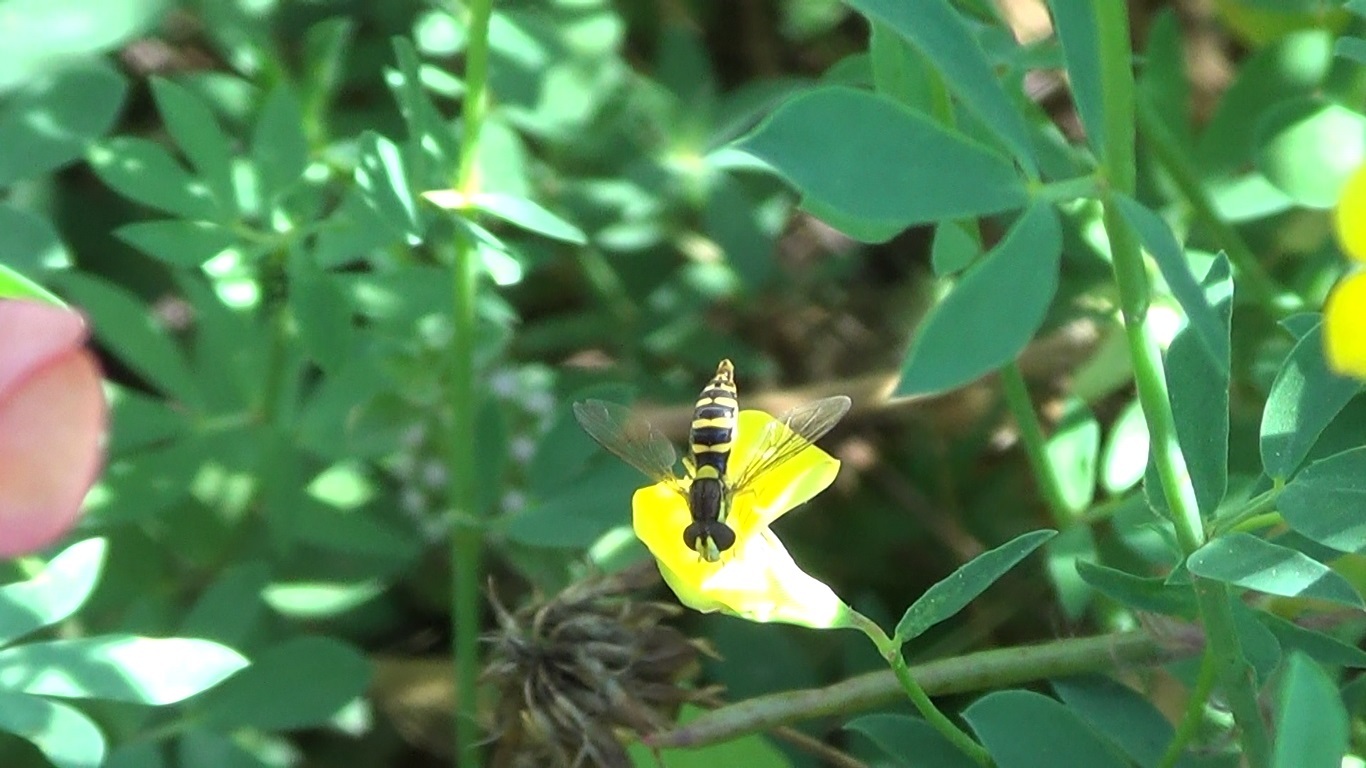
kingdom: Animalia
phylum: Arthropoda
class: Insecta
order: Diptera
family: Syrphidae
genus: Sphaerophoria
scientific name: Sphaerophoria
